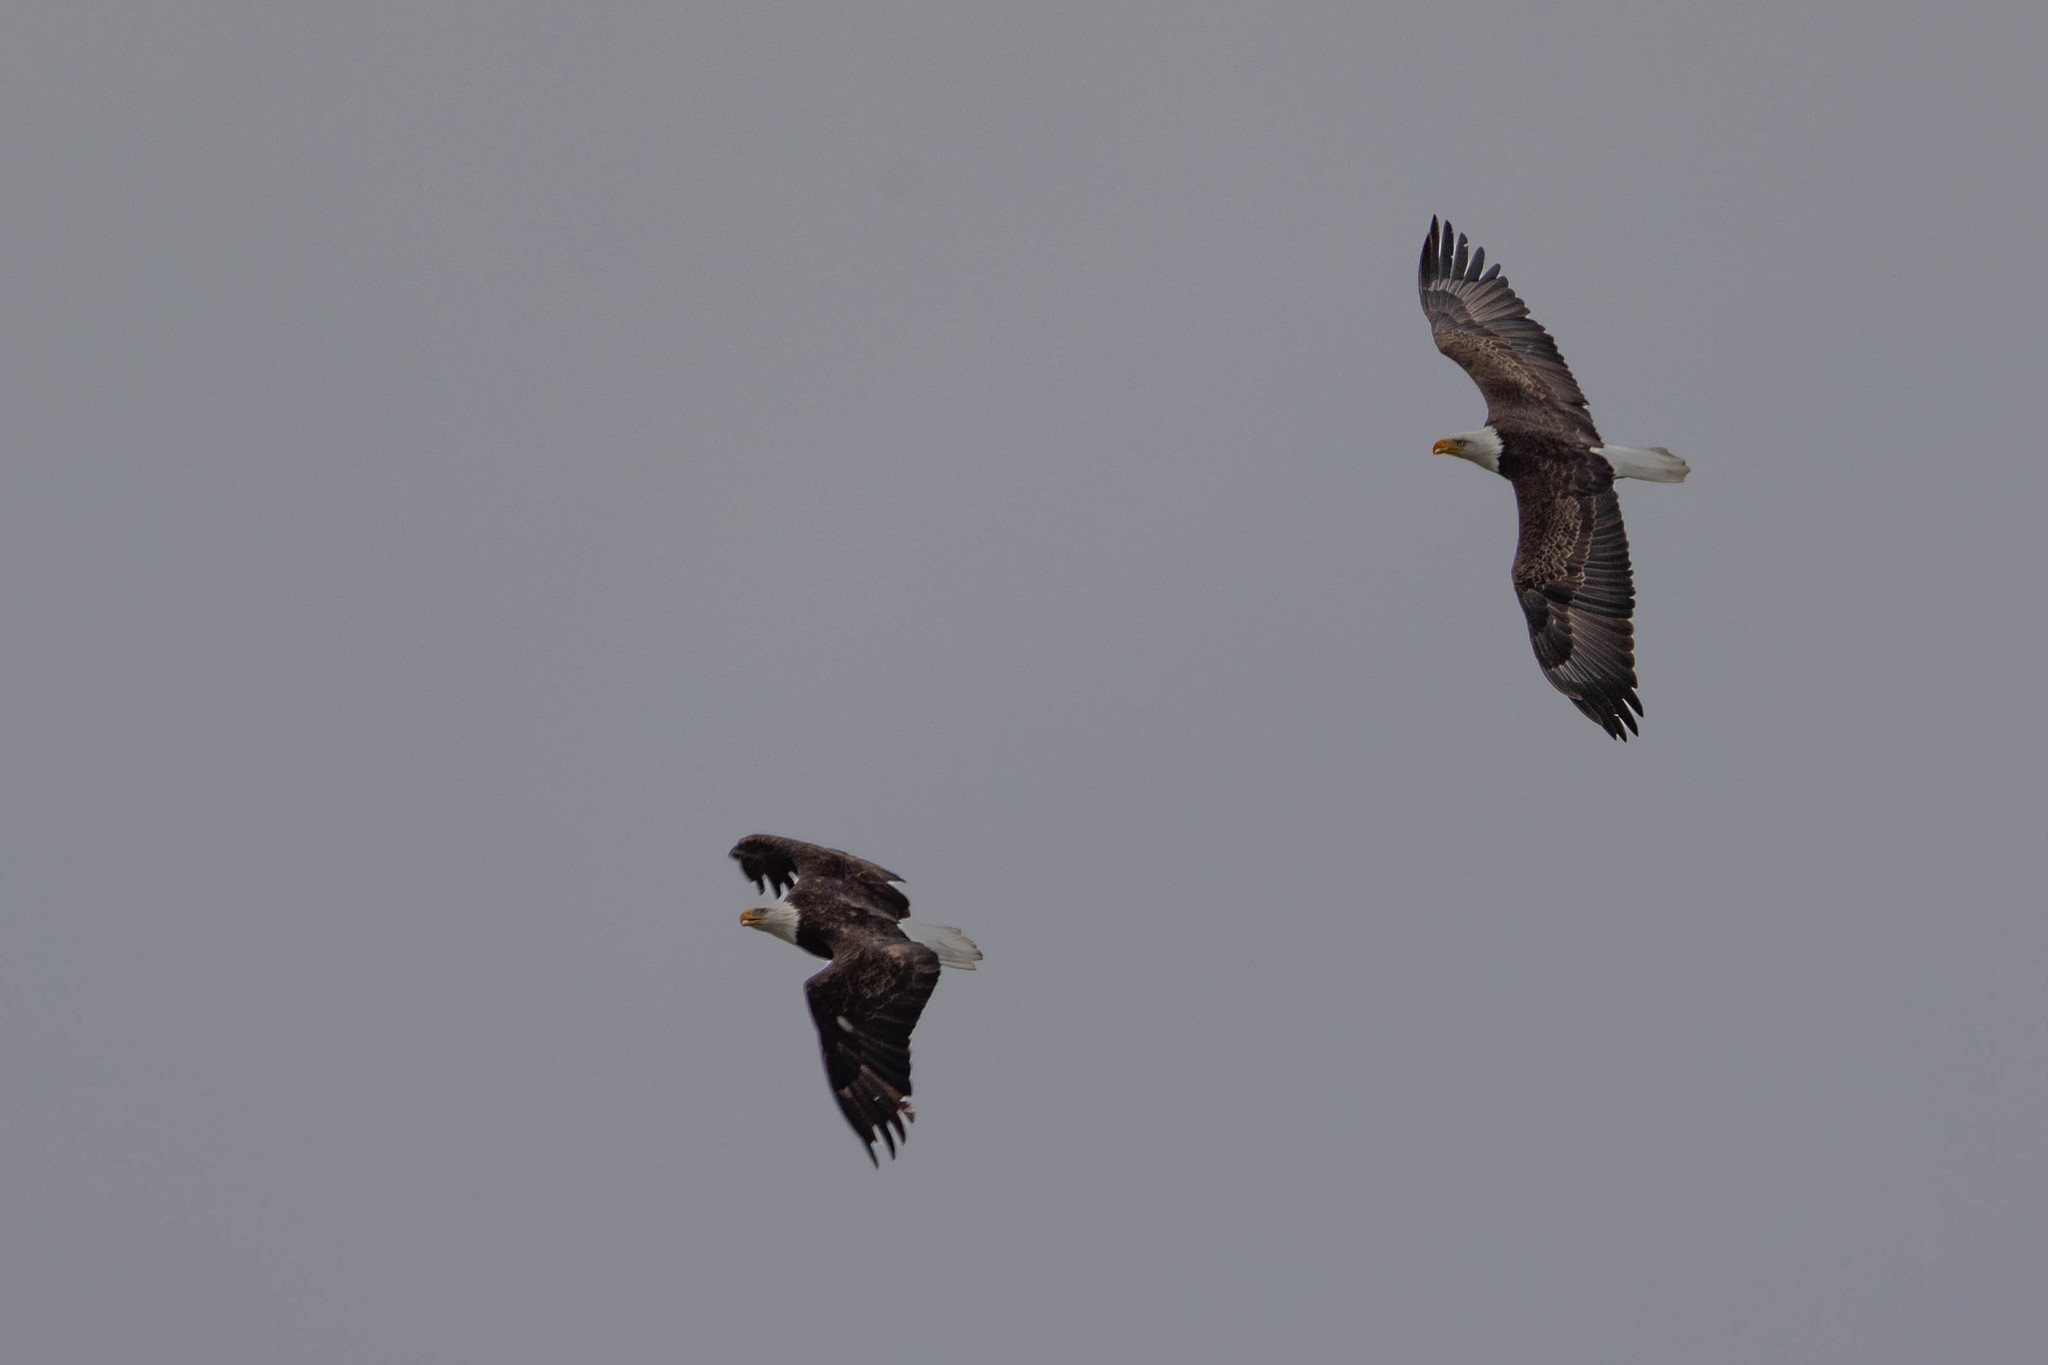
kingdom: Animalia
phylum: Chordata
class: Aves
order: Accipitriformes
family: Accipitridae
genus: Haliaeetus
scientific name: Haliaeetus leucocephalus
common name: Bald eagle
